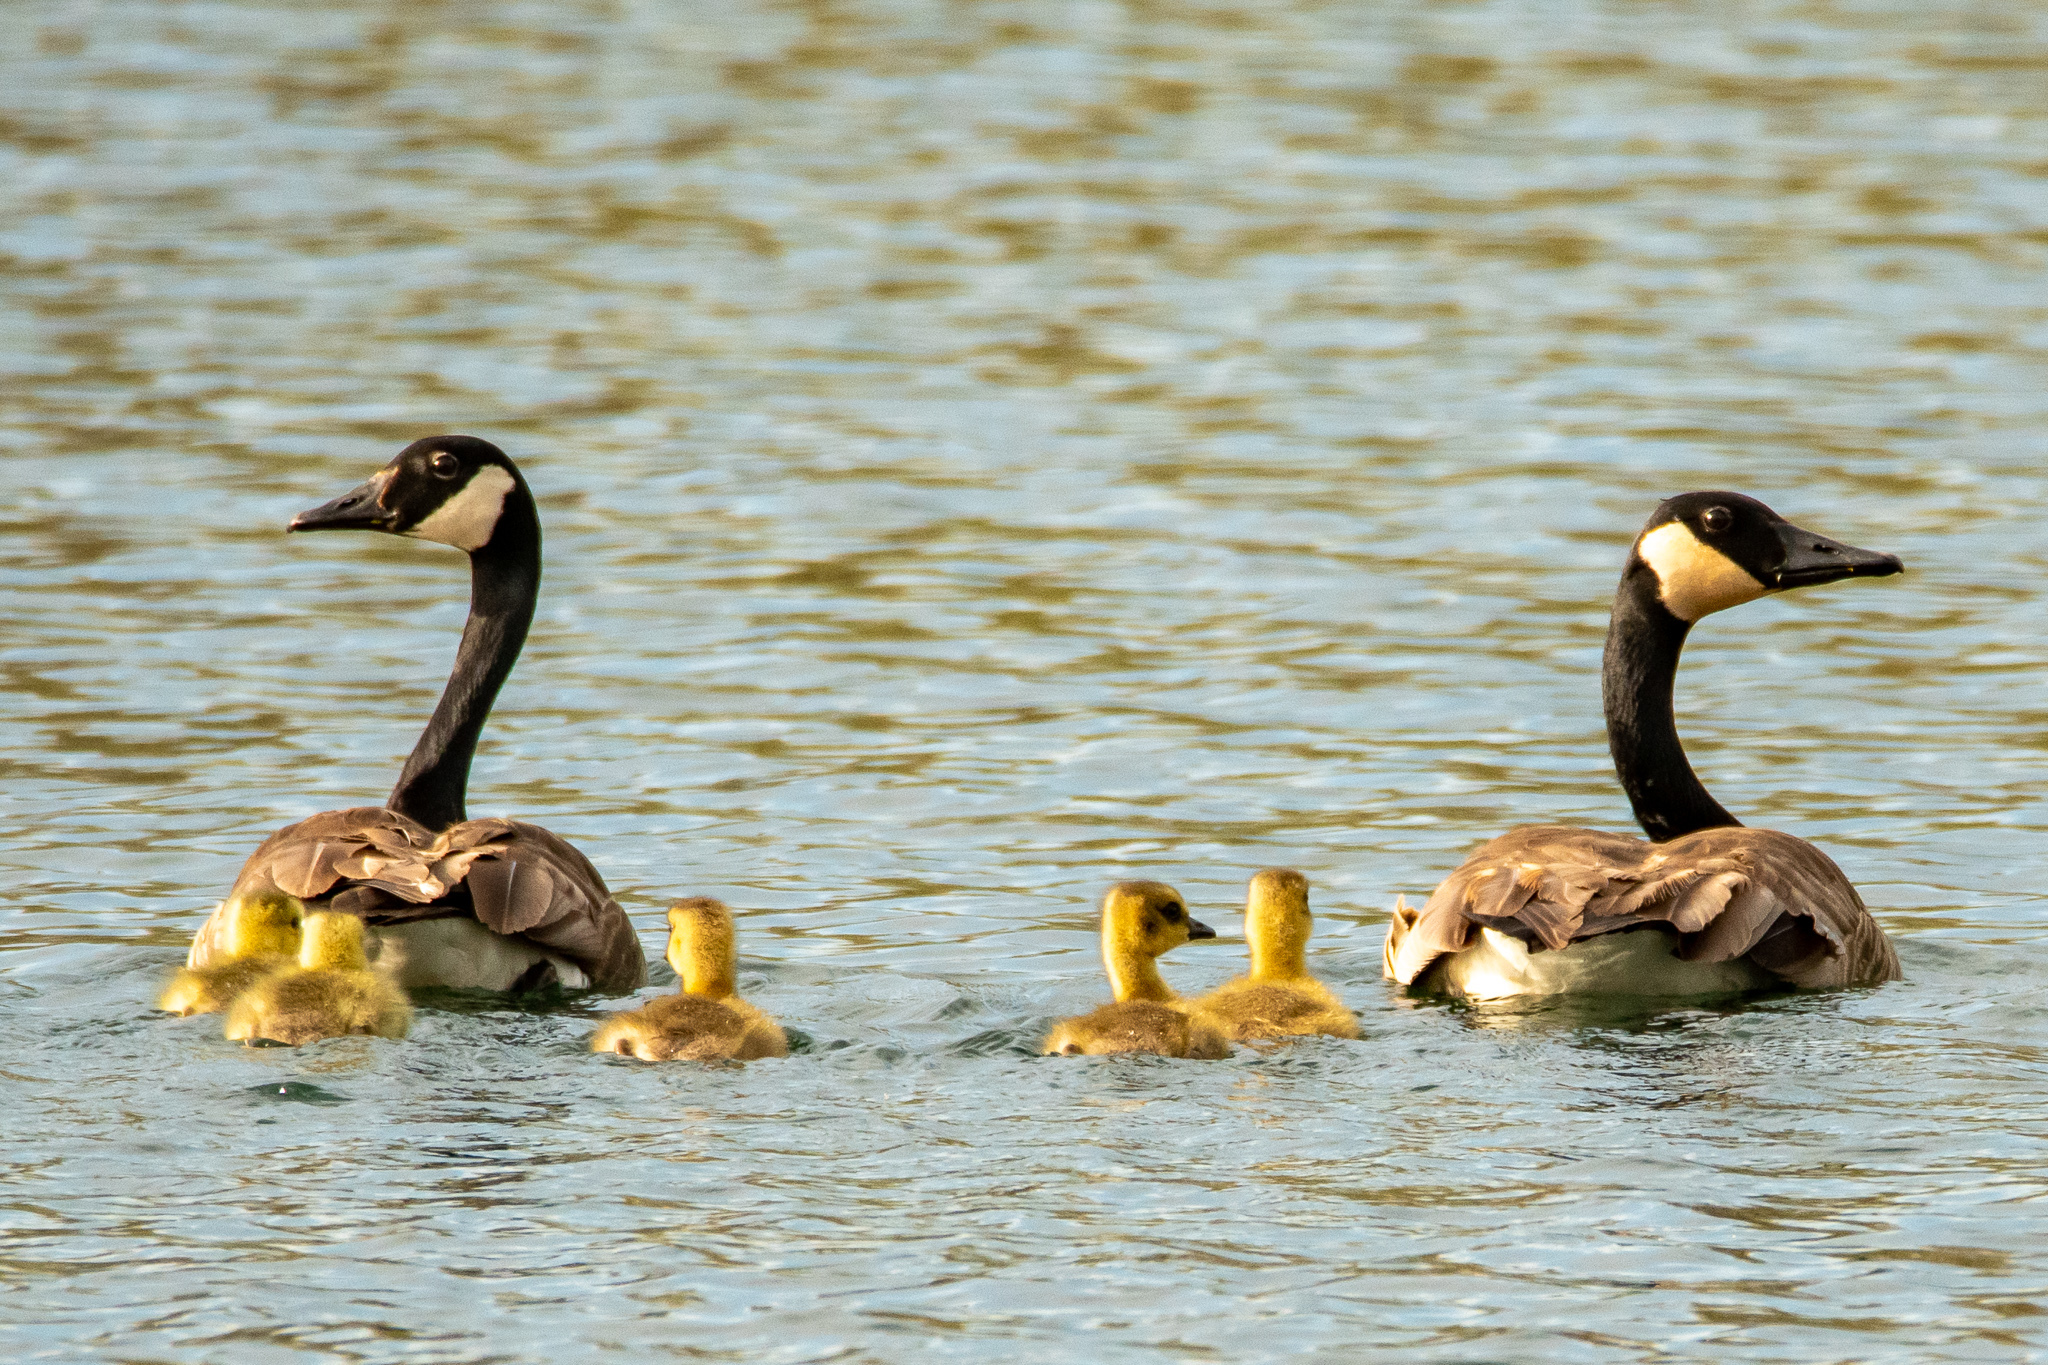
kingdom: Animalia
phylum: Chordata
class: Aves
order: Anseriformes
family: Anatidae
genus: Branta
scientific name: Branta canadensis
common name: Canada goose
